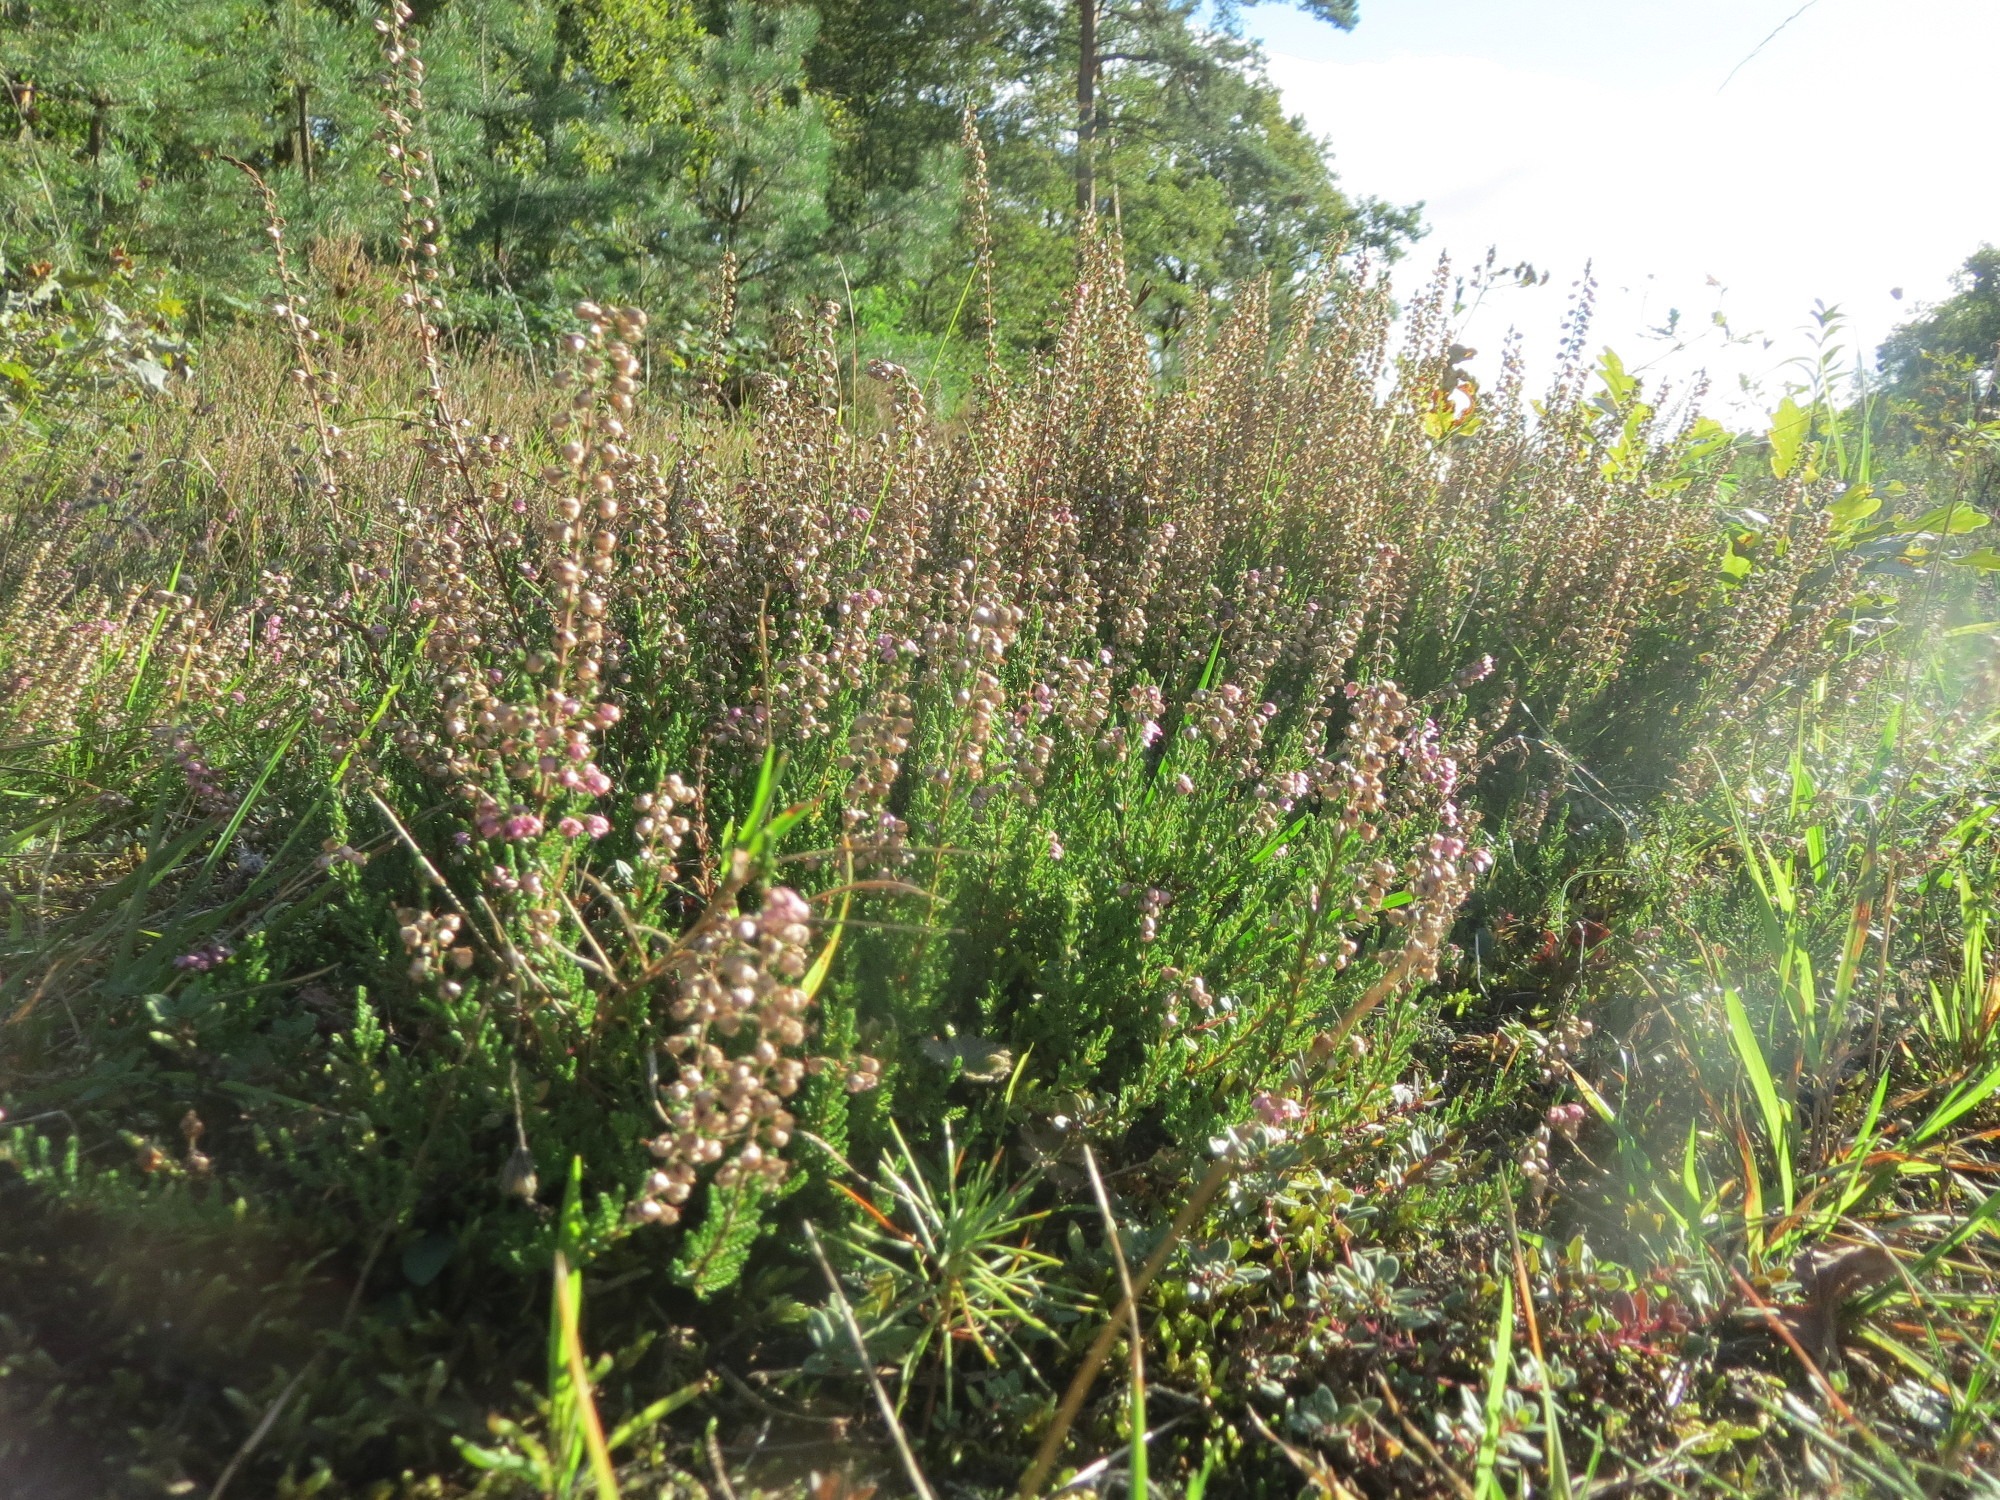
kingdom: Plantae
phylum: Tracheophyta
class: Magnoliopsida
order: Ericales
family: Ericaceae
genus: Calluna
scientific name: Calluna vulgaris
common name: Heather
